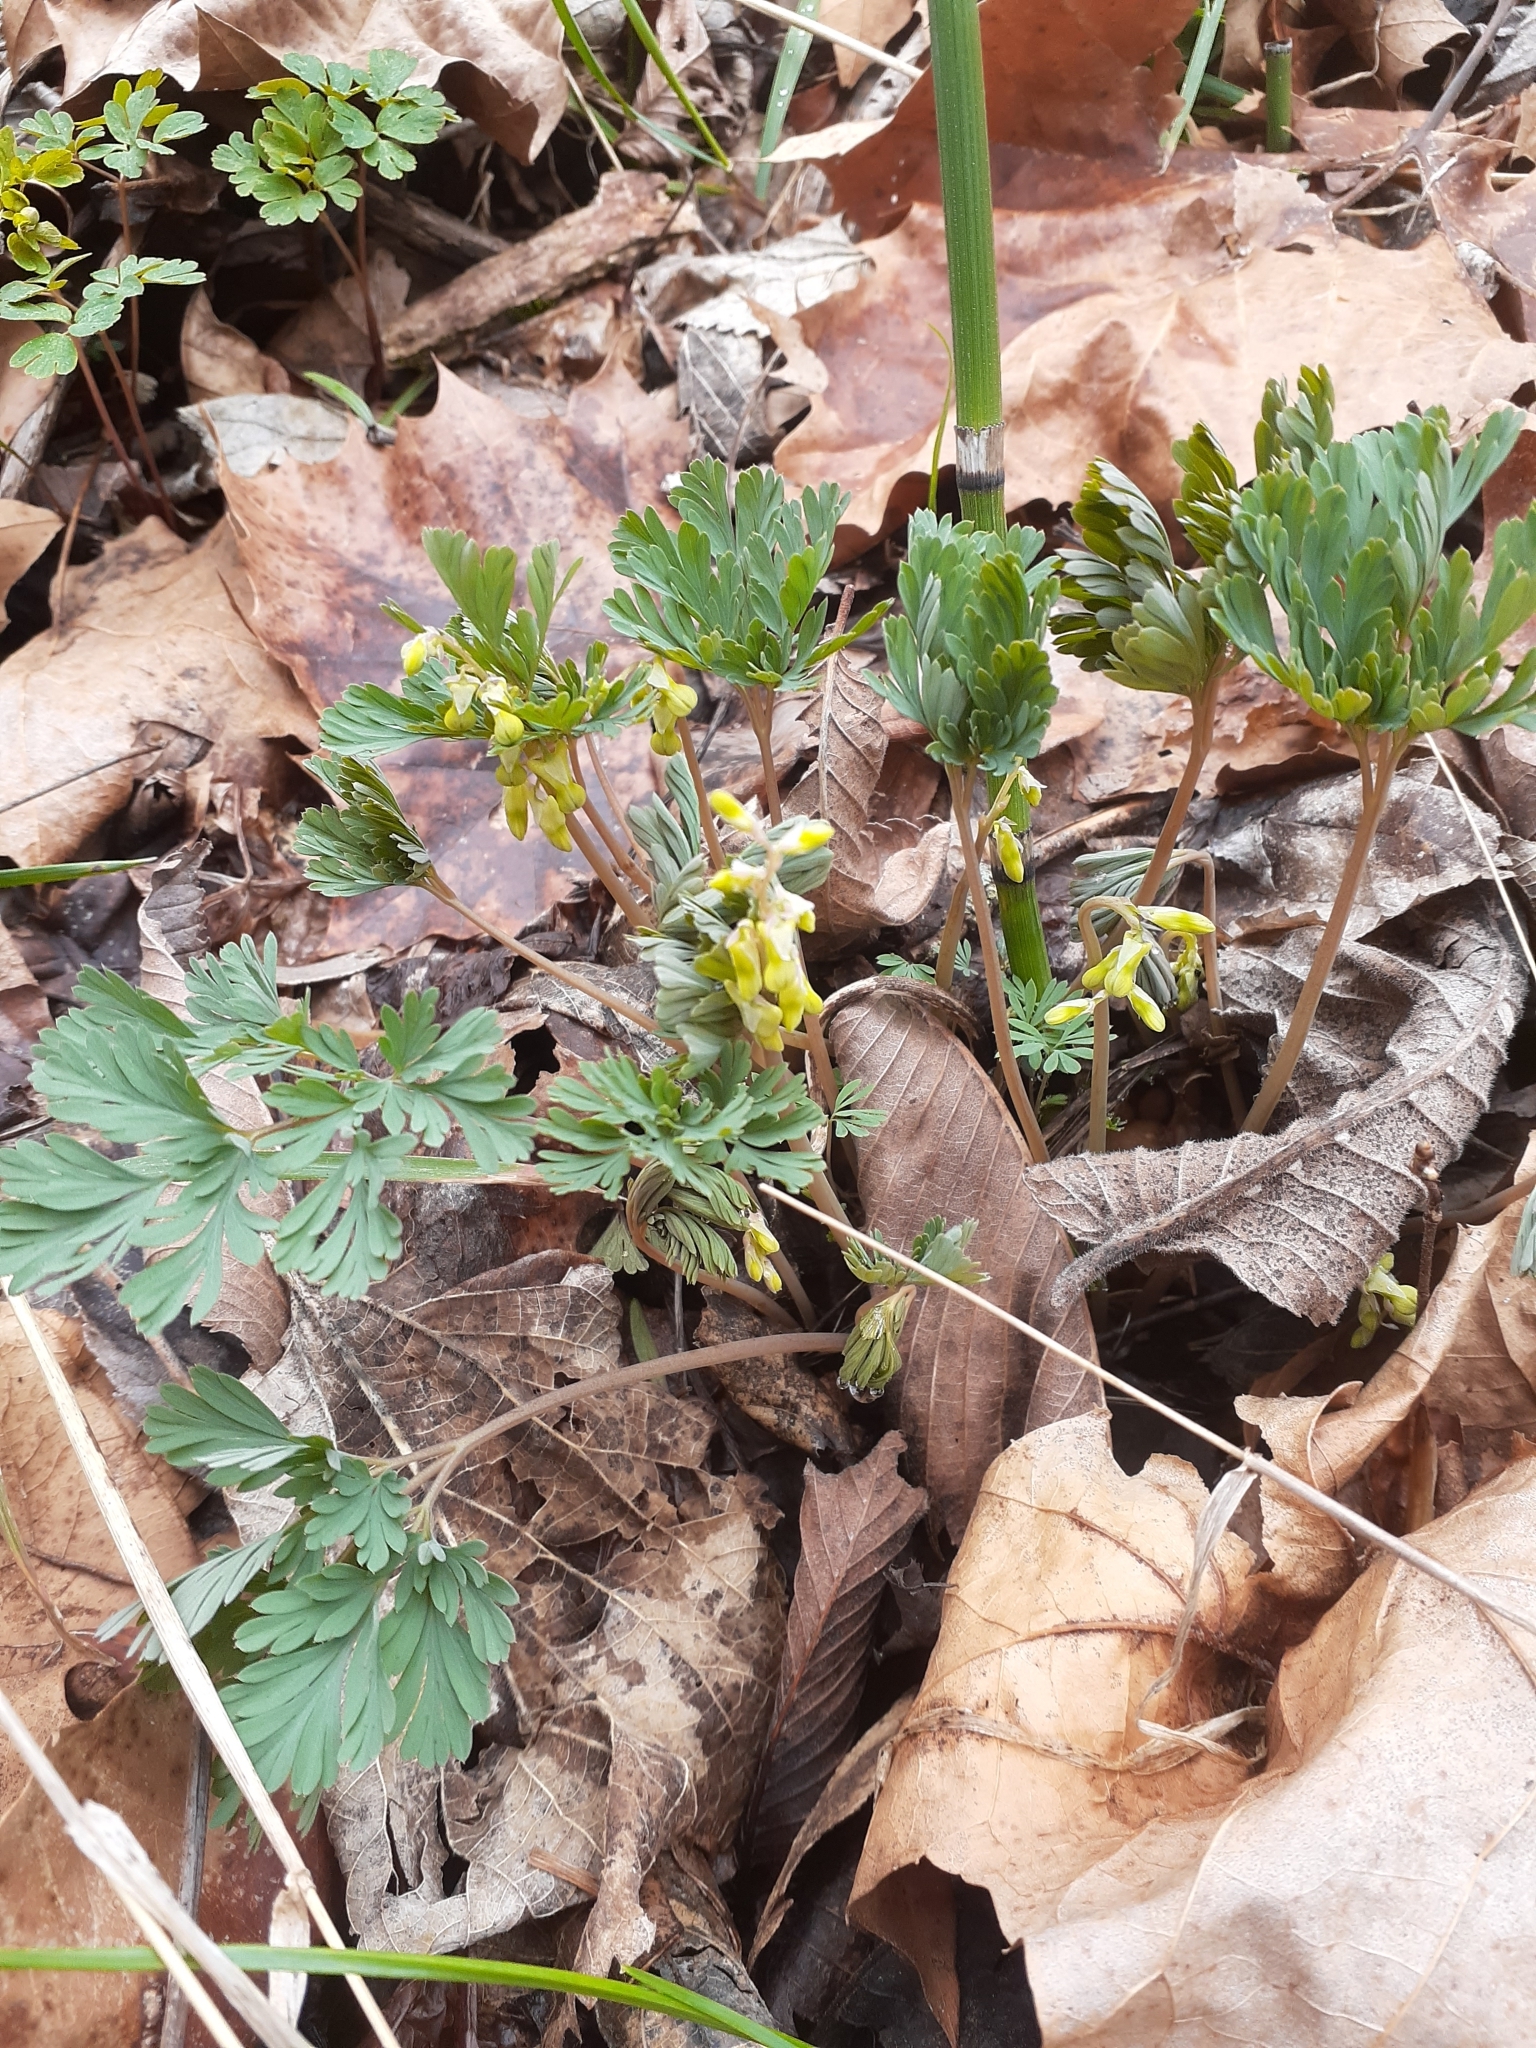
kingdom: Plantae
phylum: Tracheophyta
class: Magnoliopsida
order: Ranunculales
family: Papaveraceae
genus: Dicentra
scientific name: Dicentra cucullaria
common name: Dutchman's breeches
